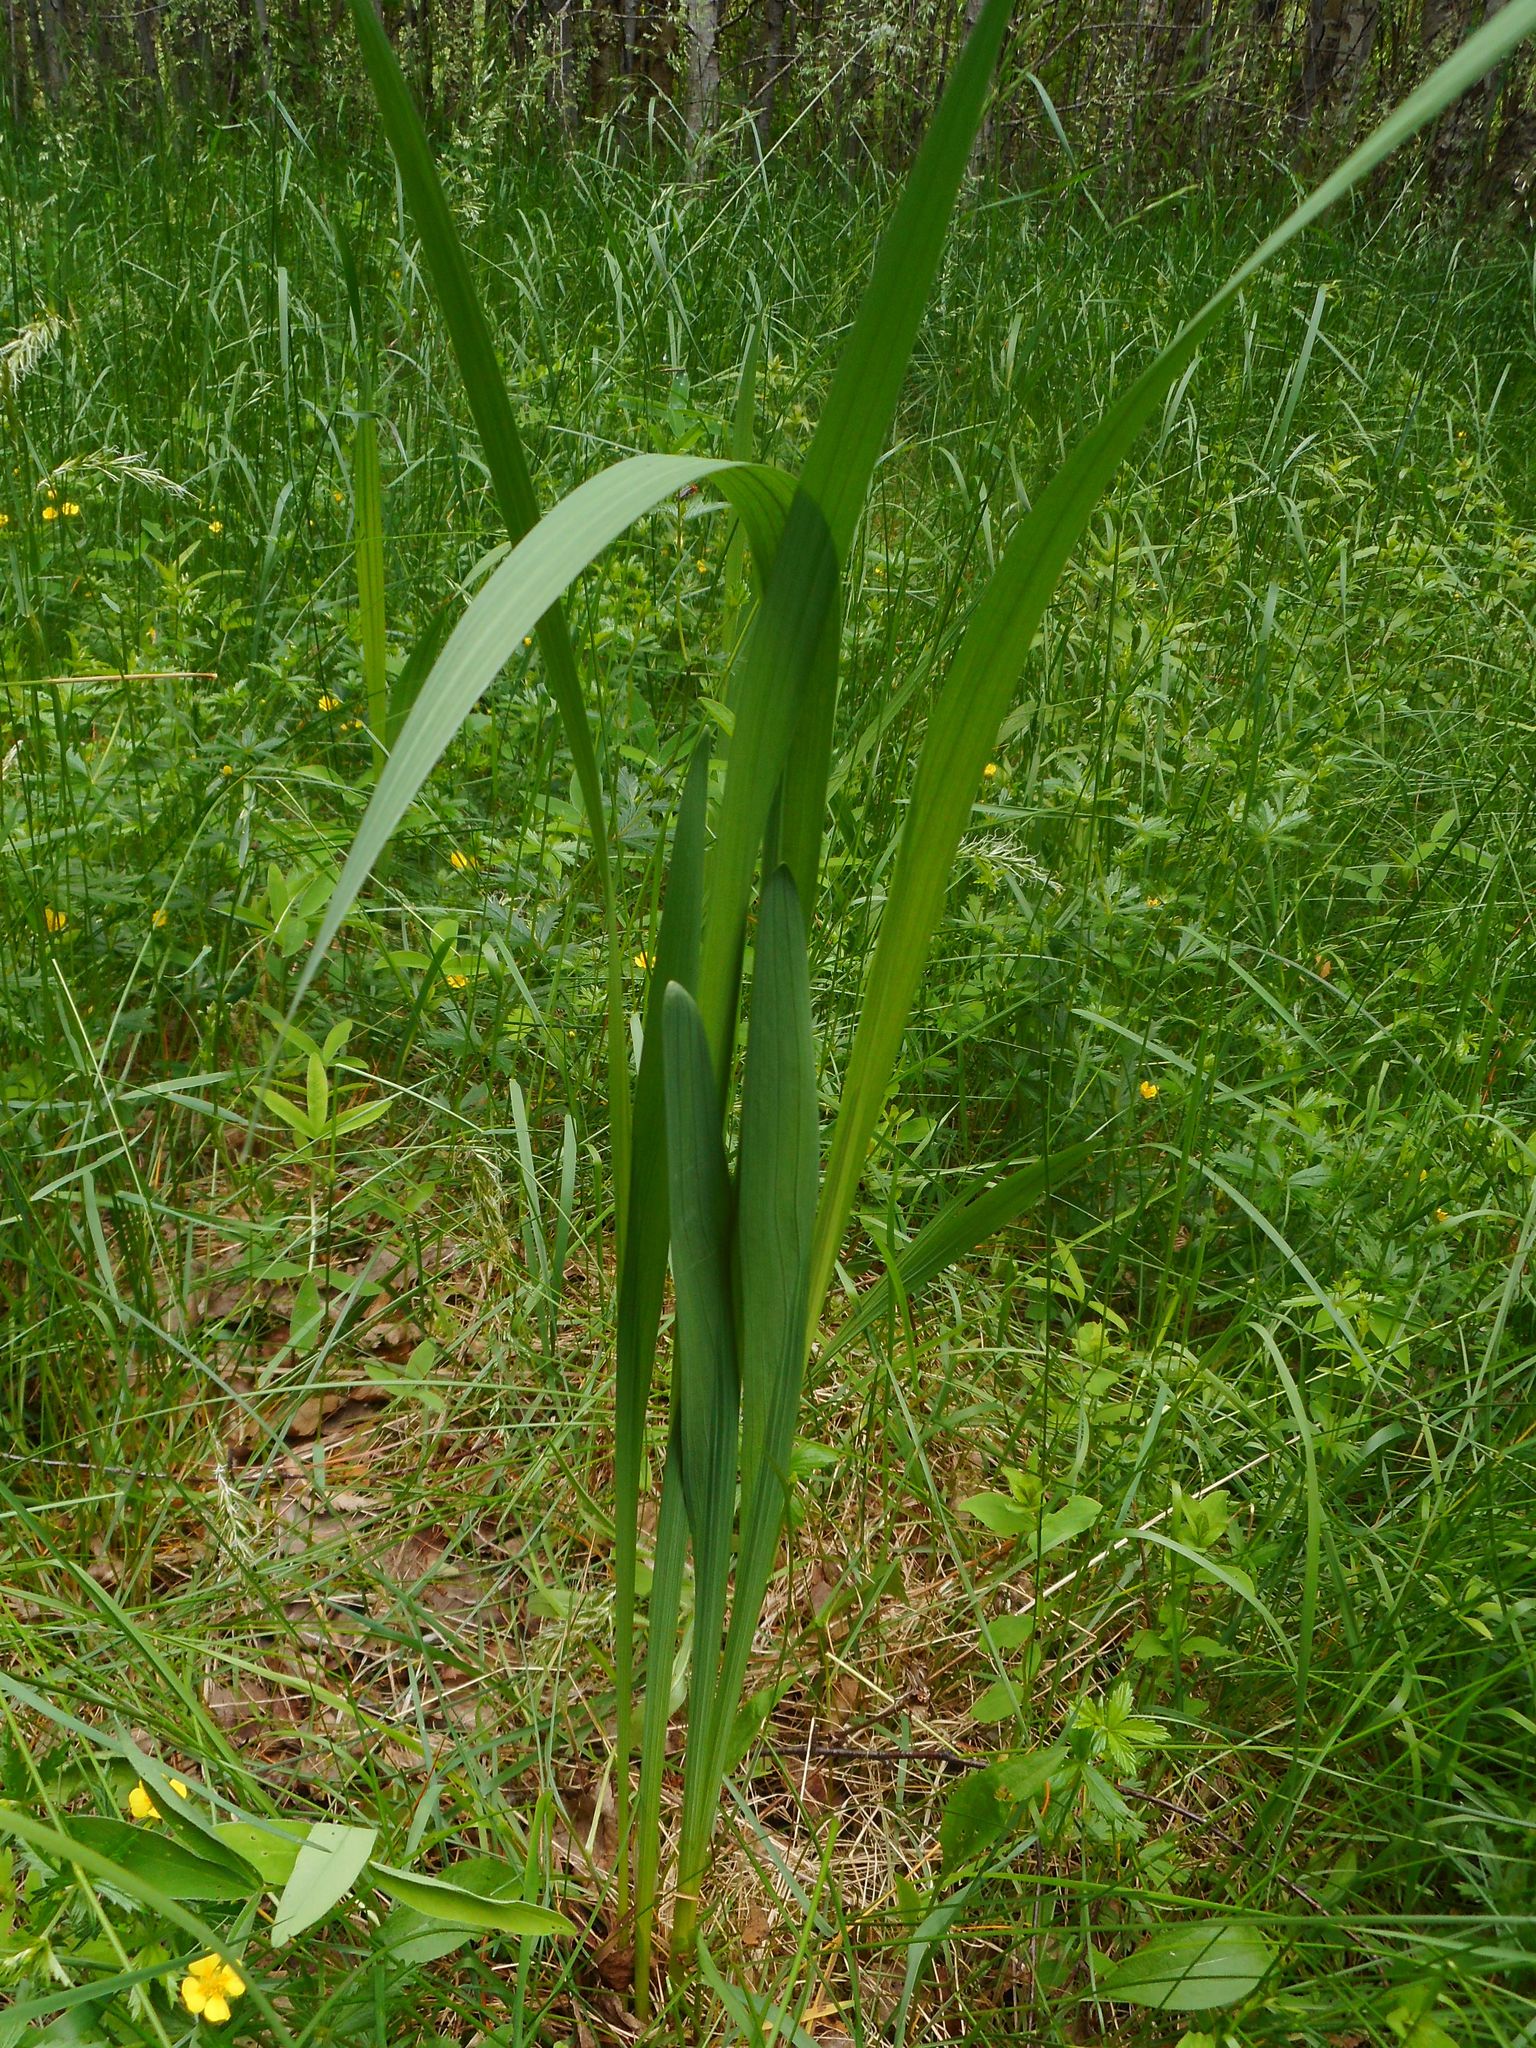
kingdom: Plantae
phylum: Tracheophyta
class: Liliopsida
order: Asparagales
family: Iridaceae
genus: Gladiolus
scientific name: Gladiolus imbricatus
